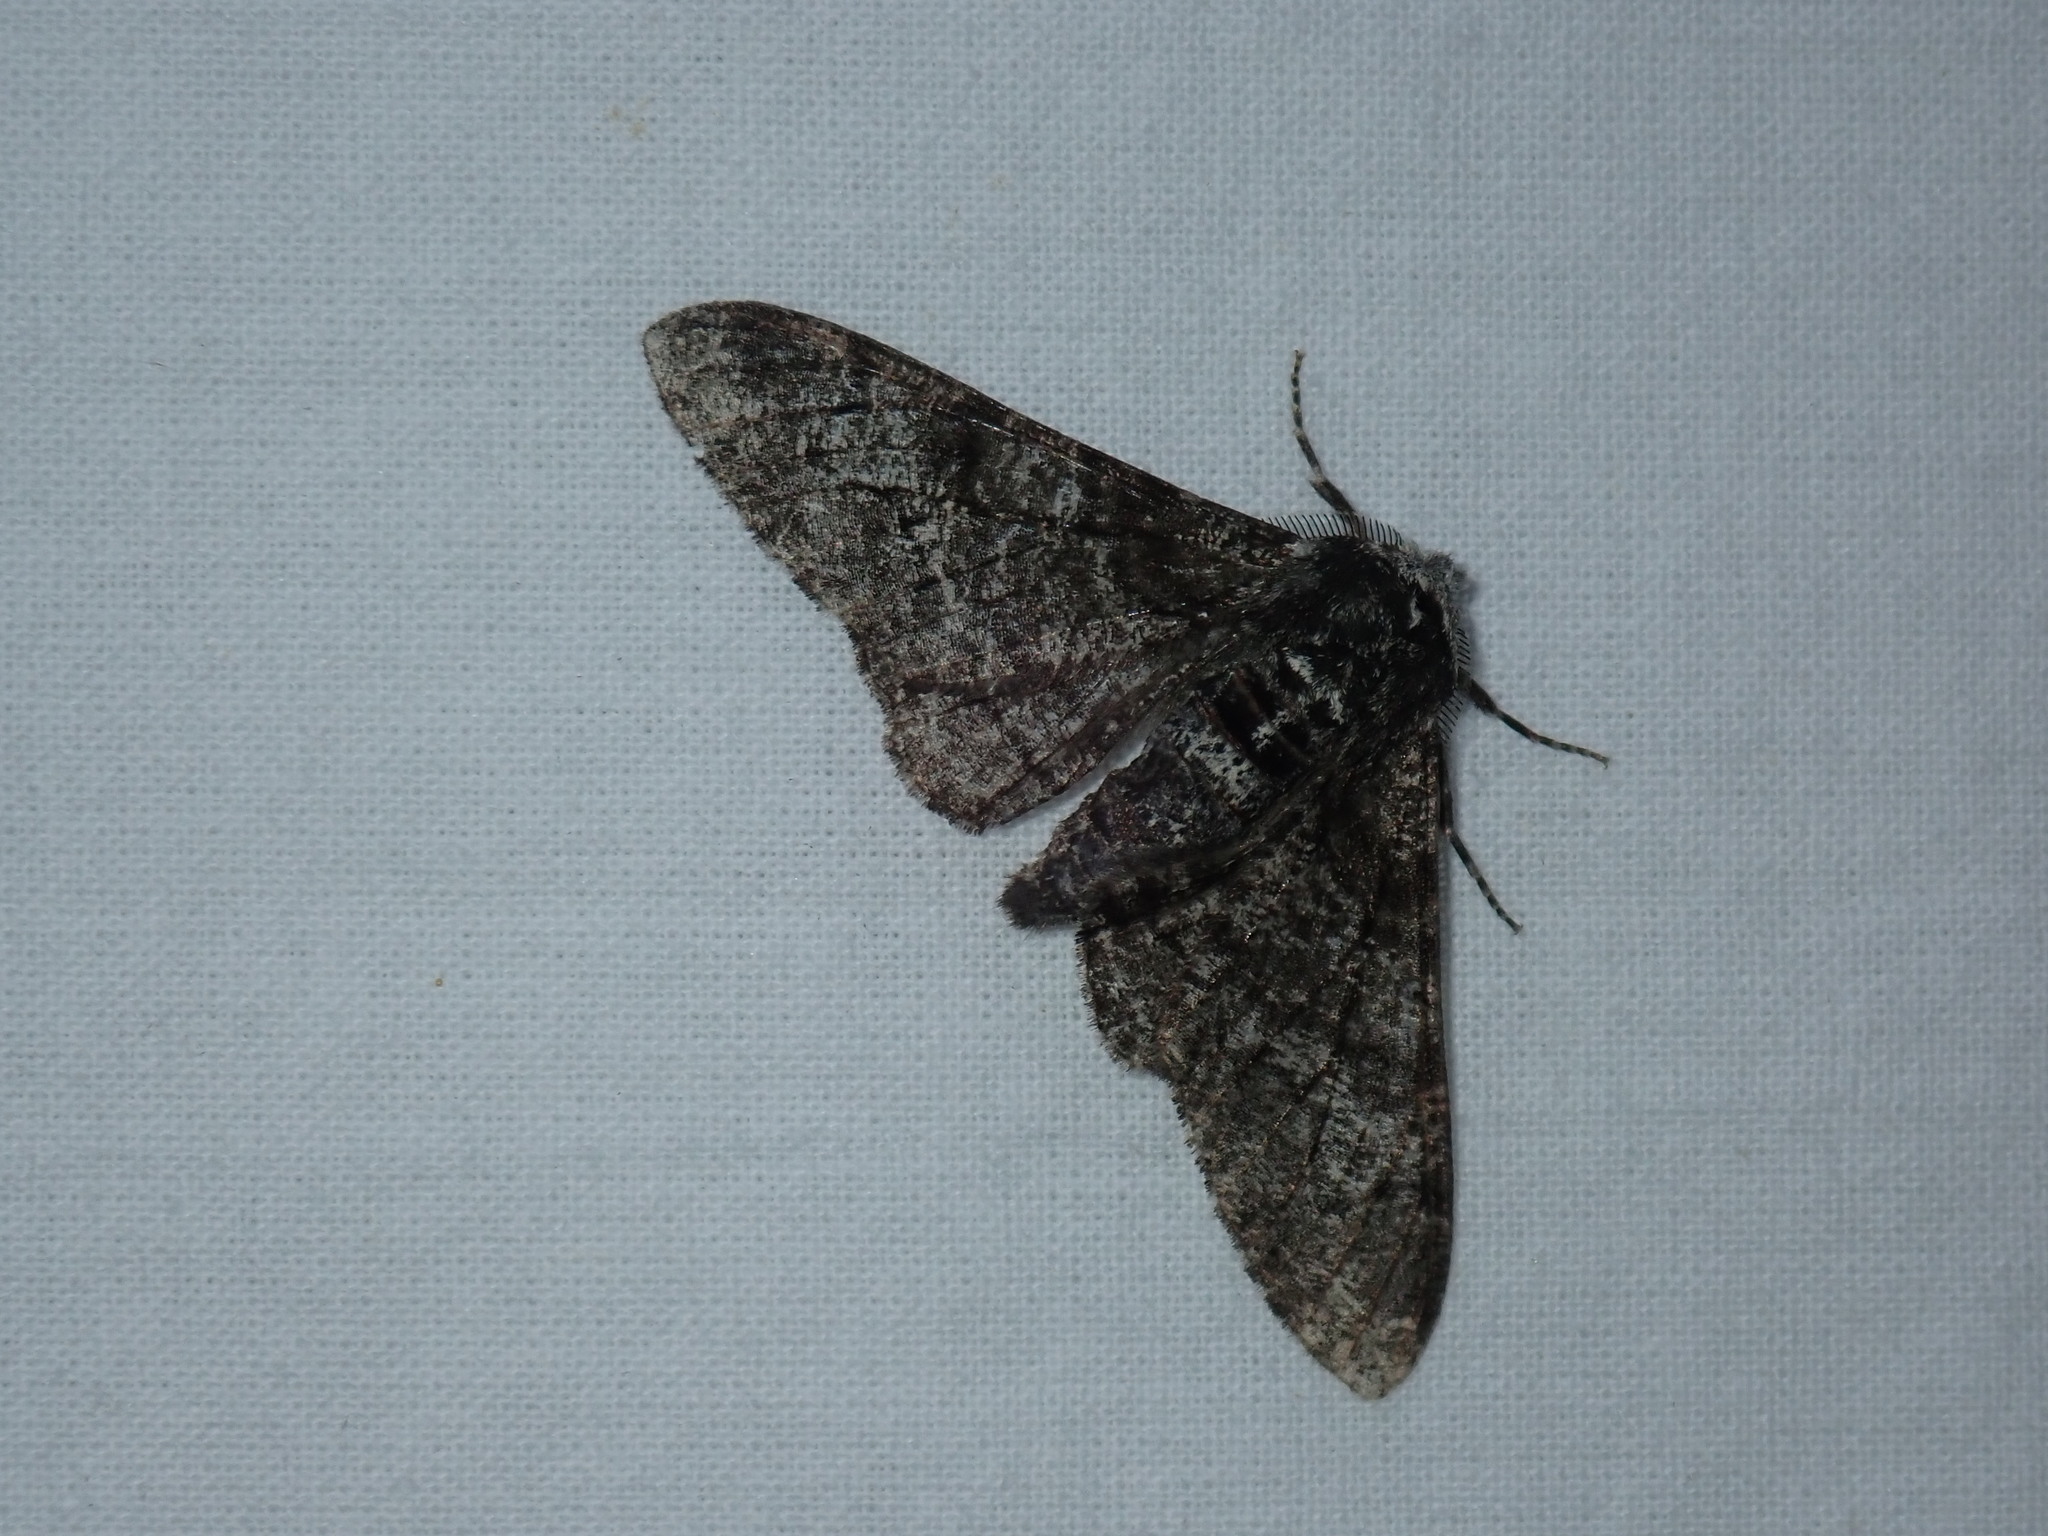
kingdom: Animalia
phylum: Arthropoda
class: Insecta
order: Lepidoptera
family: Geometridae
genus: Biston
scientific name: Biston betularia
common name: Peppered moth
